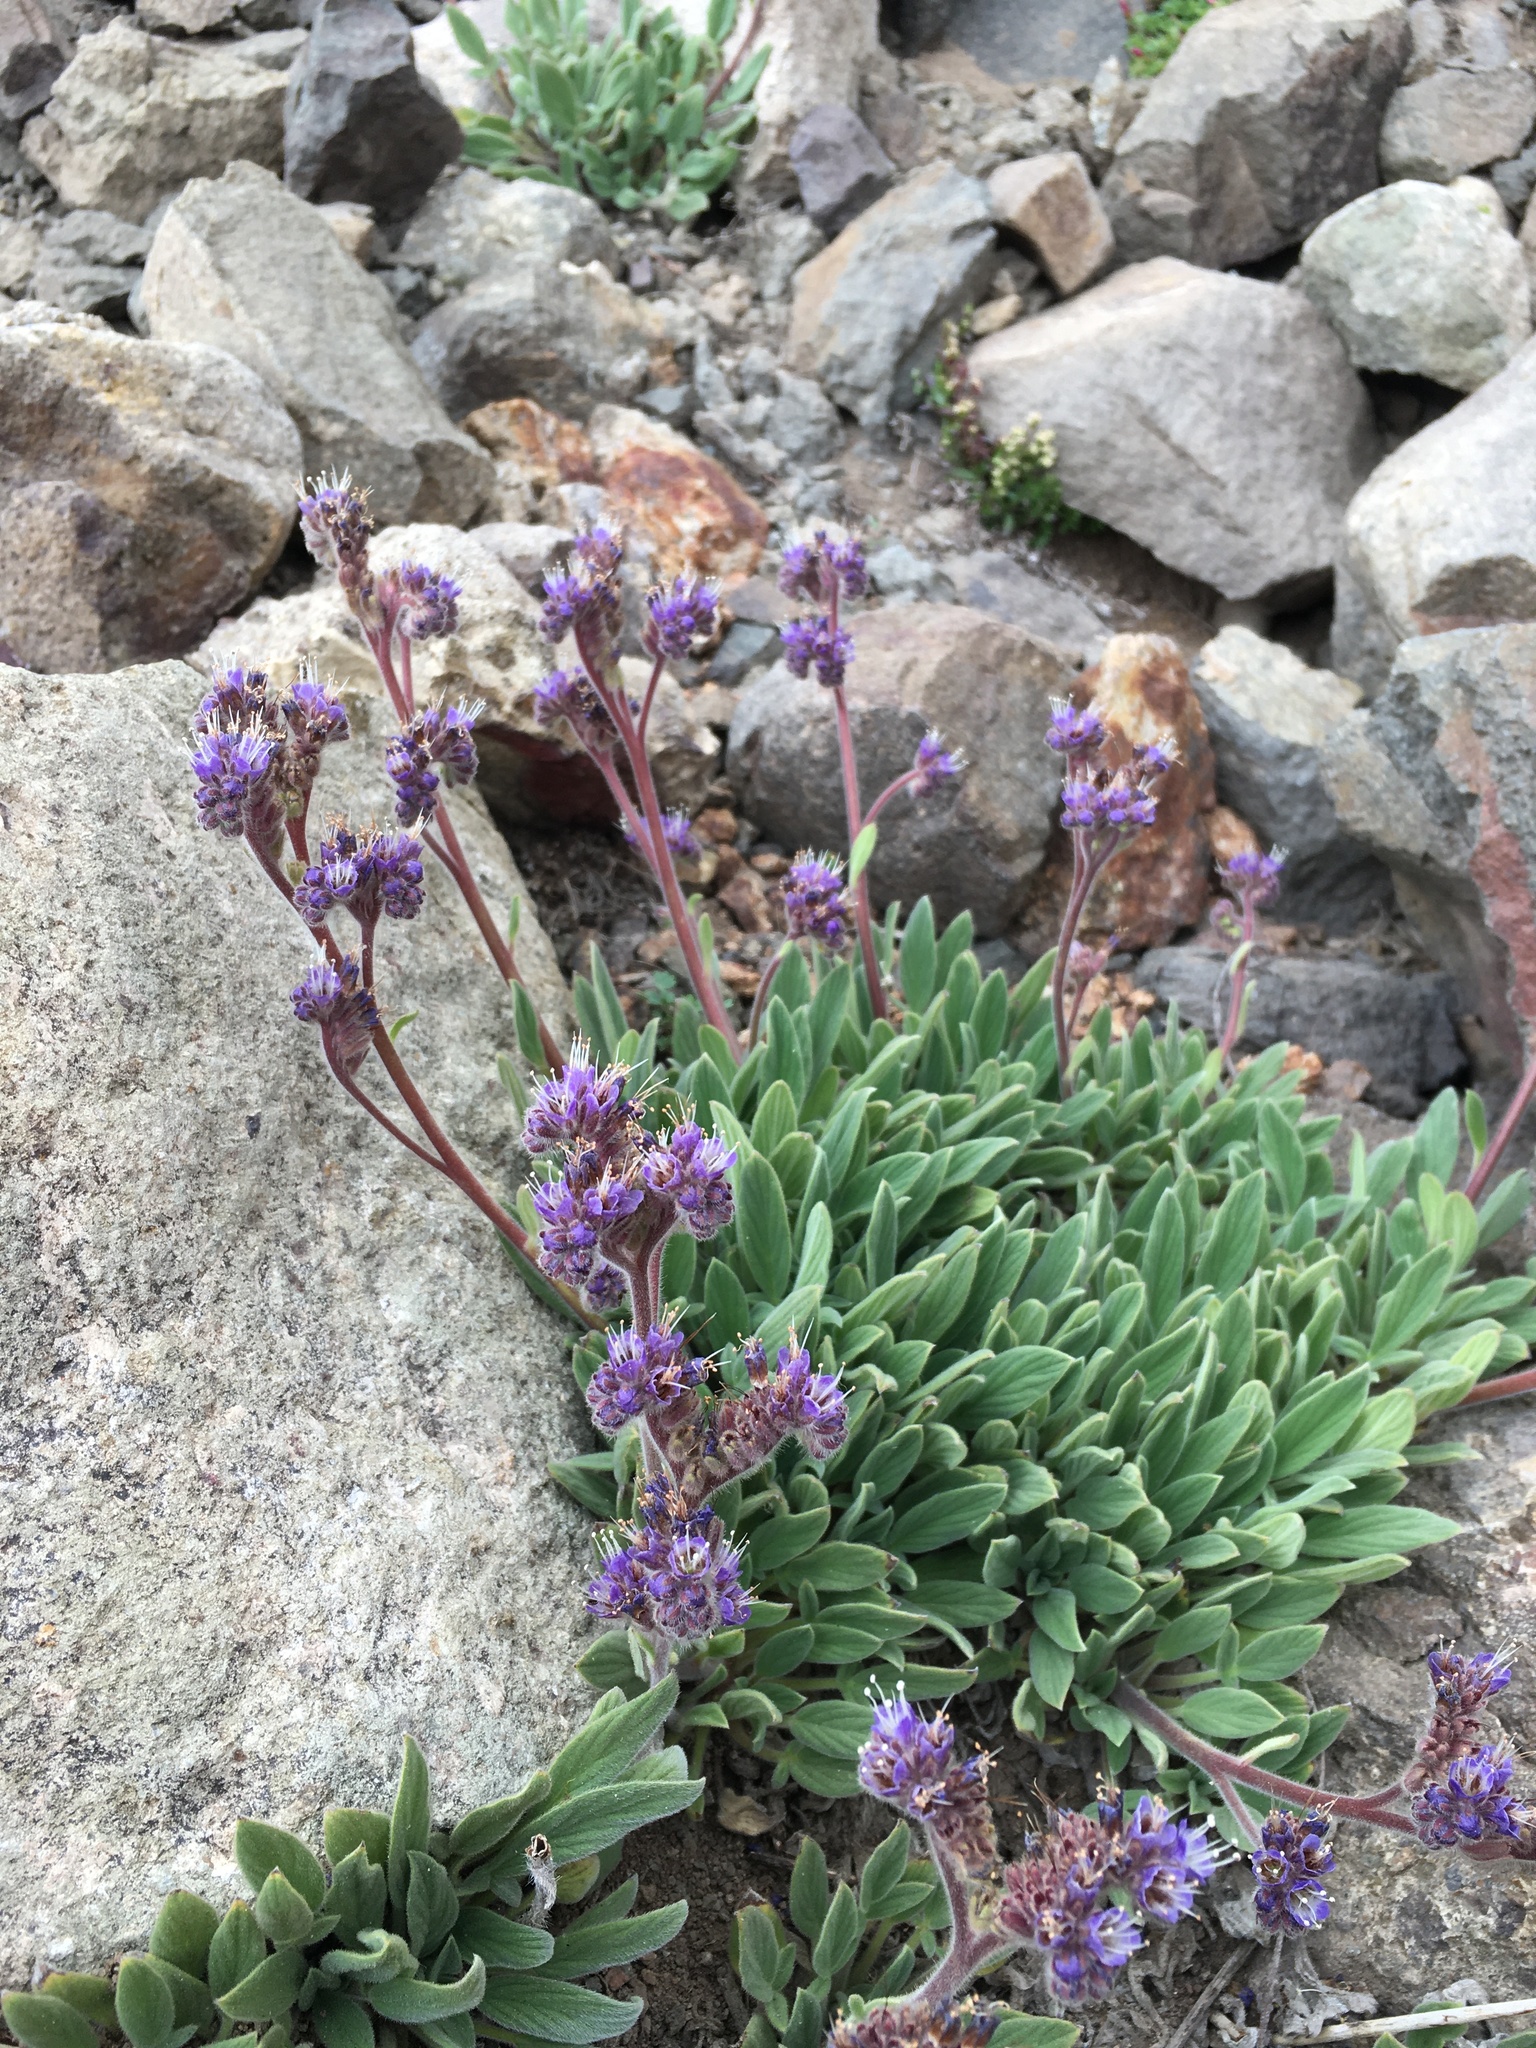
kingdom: Plantae
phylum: Tracheophyta
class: Magnoliopsida
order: Boraginales
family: Hydrophyllaceae
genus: Phacelia
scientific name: Phacelia secunda
